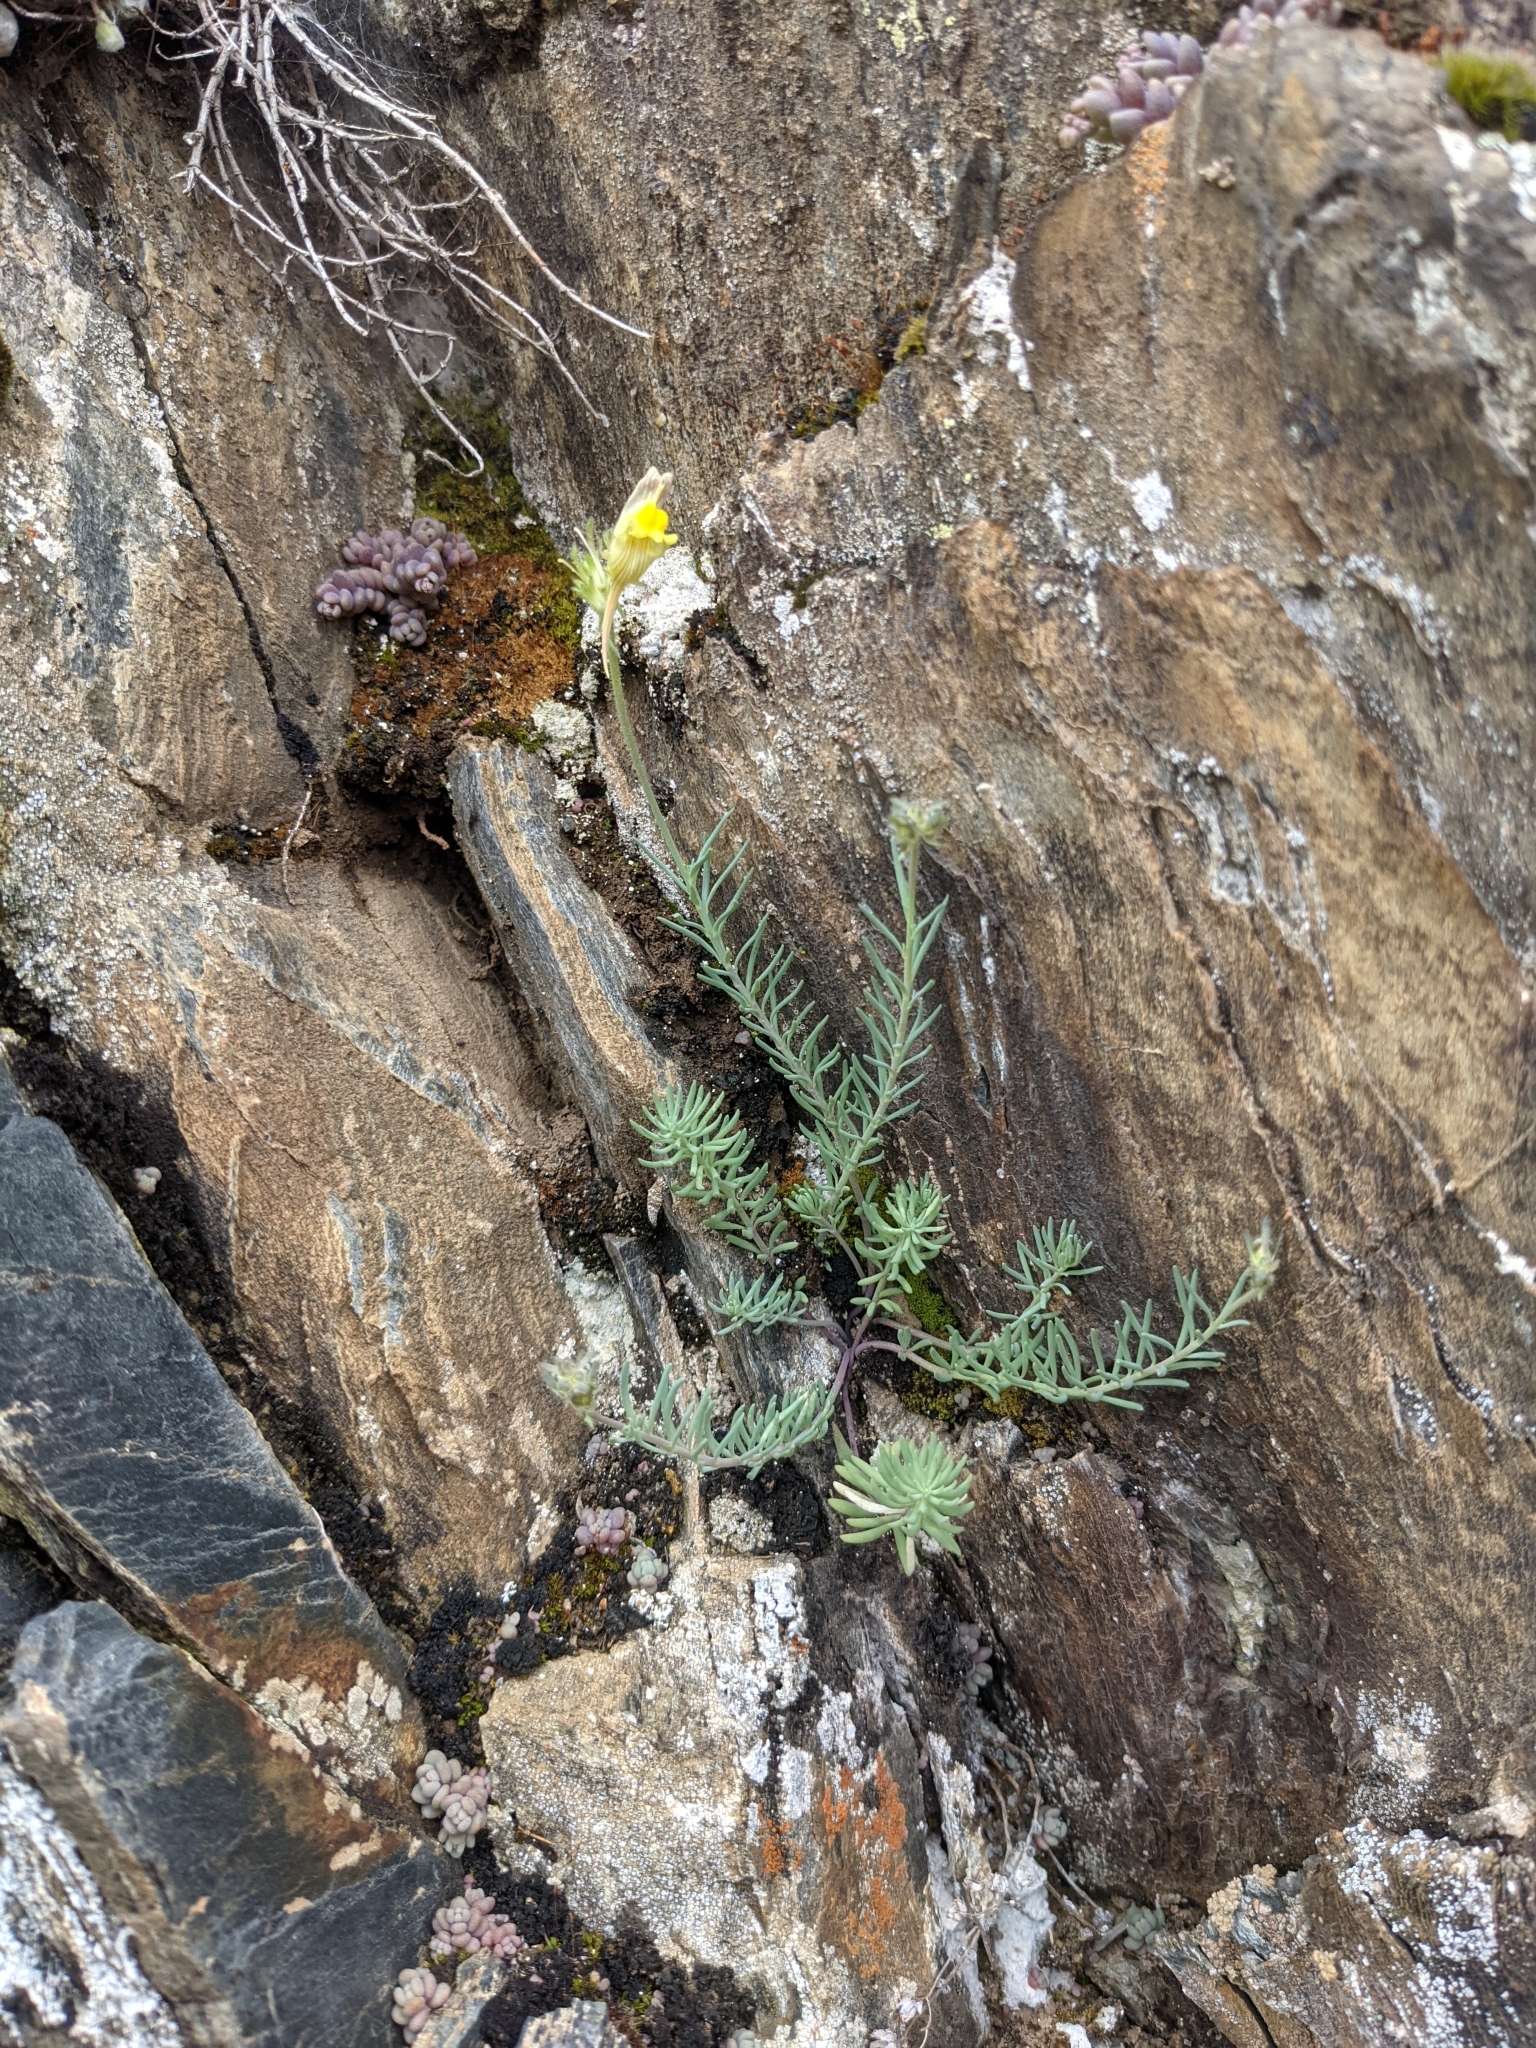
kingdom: Plantae
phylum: Tracheophyta
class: Magnoliopsida
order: Lamiales
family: Plantaginaceae
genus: Linaria
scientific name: Linaria supina
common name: Prostrate toadflax
